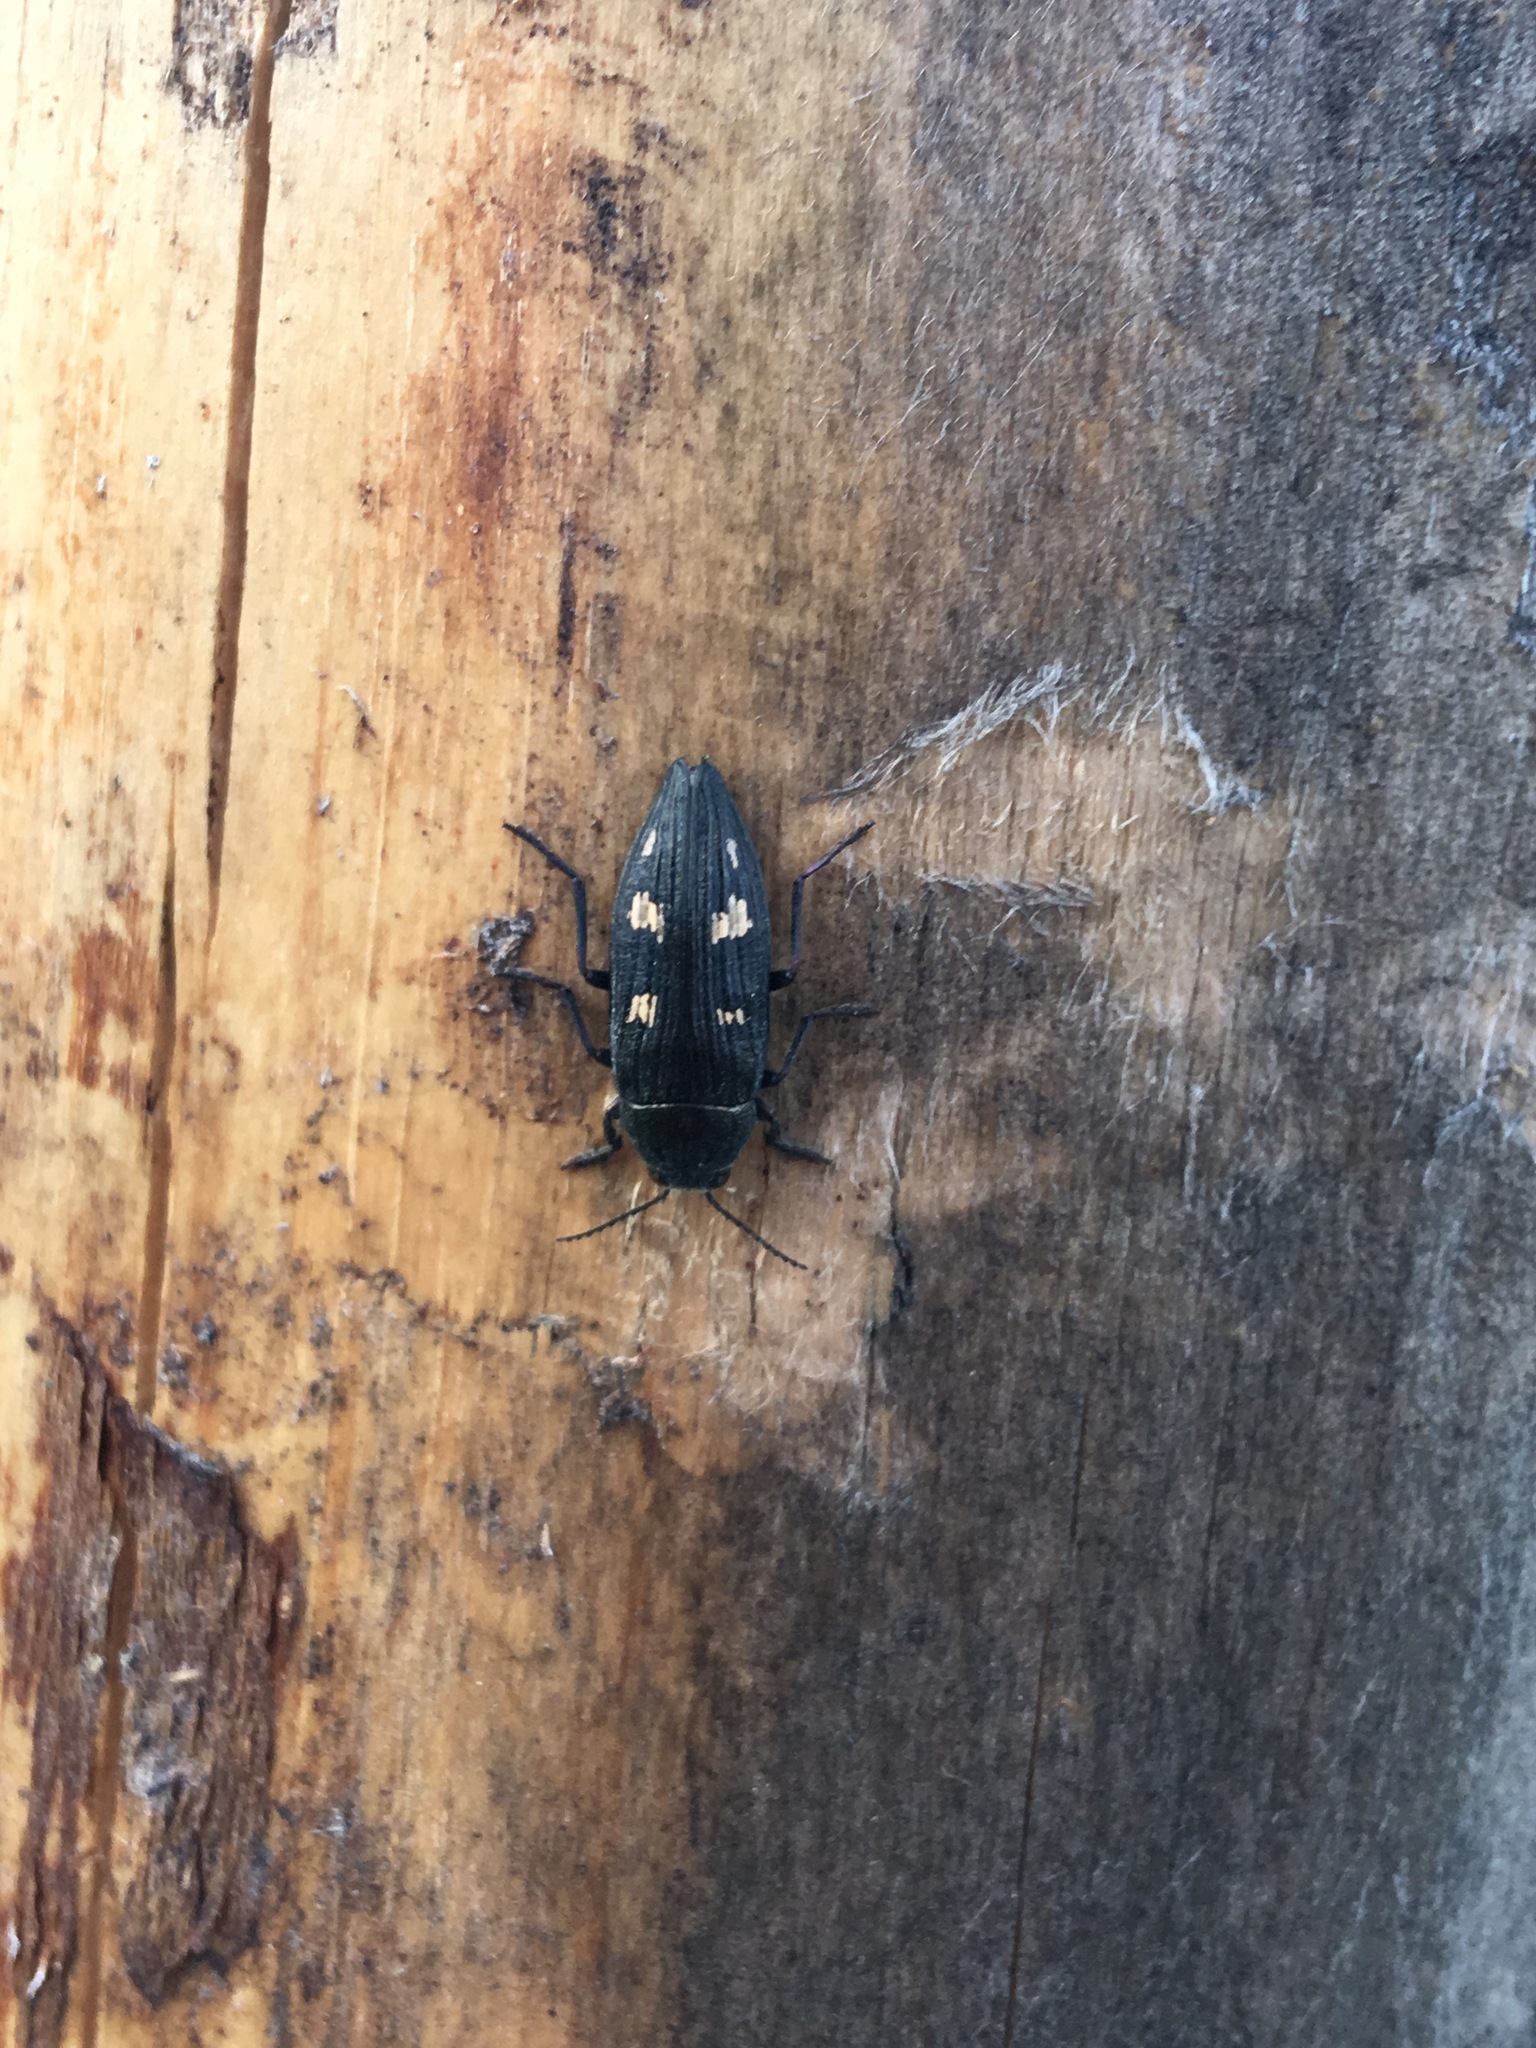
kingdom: Animalia
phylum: Arthropoda
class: Insecta
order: Coleoptera
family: Buprestidae
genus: Buprestis
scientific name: Buprestis strigosa
